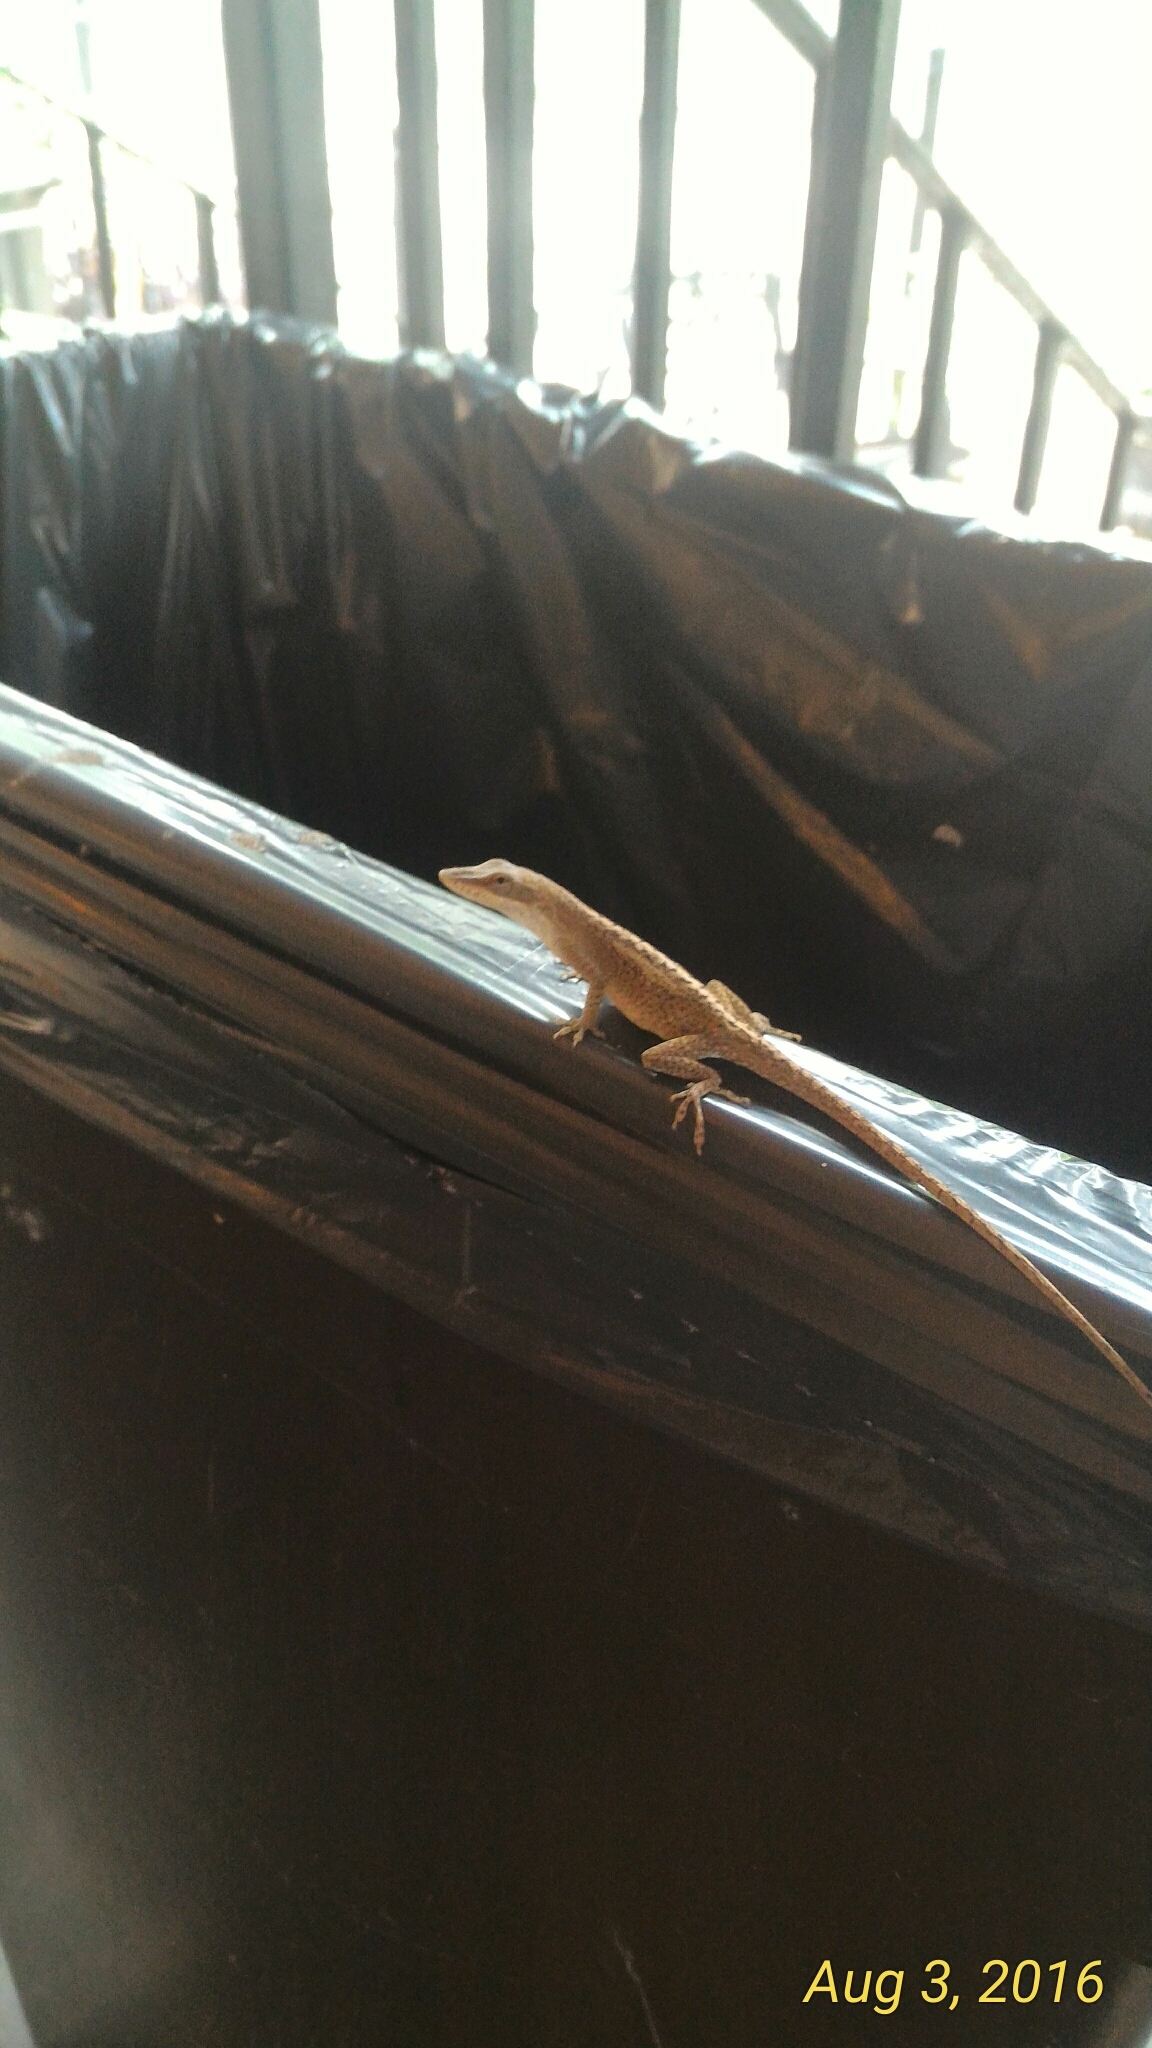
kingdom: Animalia
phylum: Chordata
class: Squamata
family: Dactyloidae
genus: Anolis
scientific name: Anolis carolinensis
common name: Green anole
